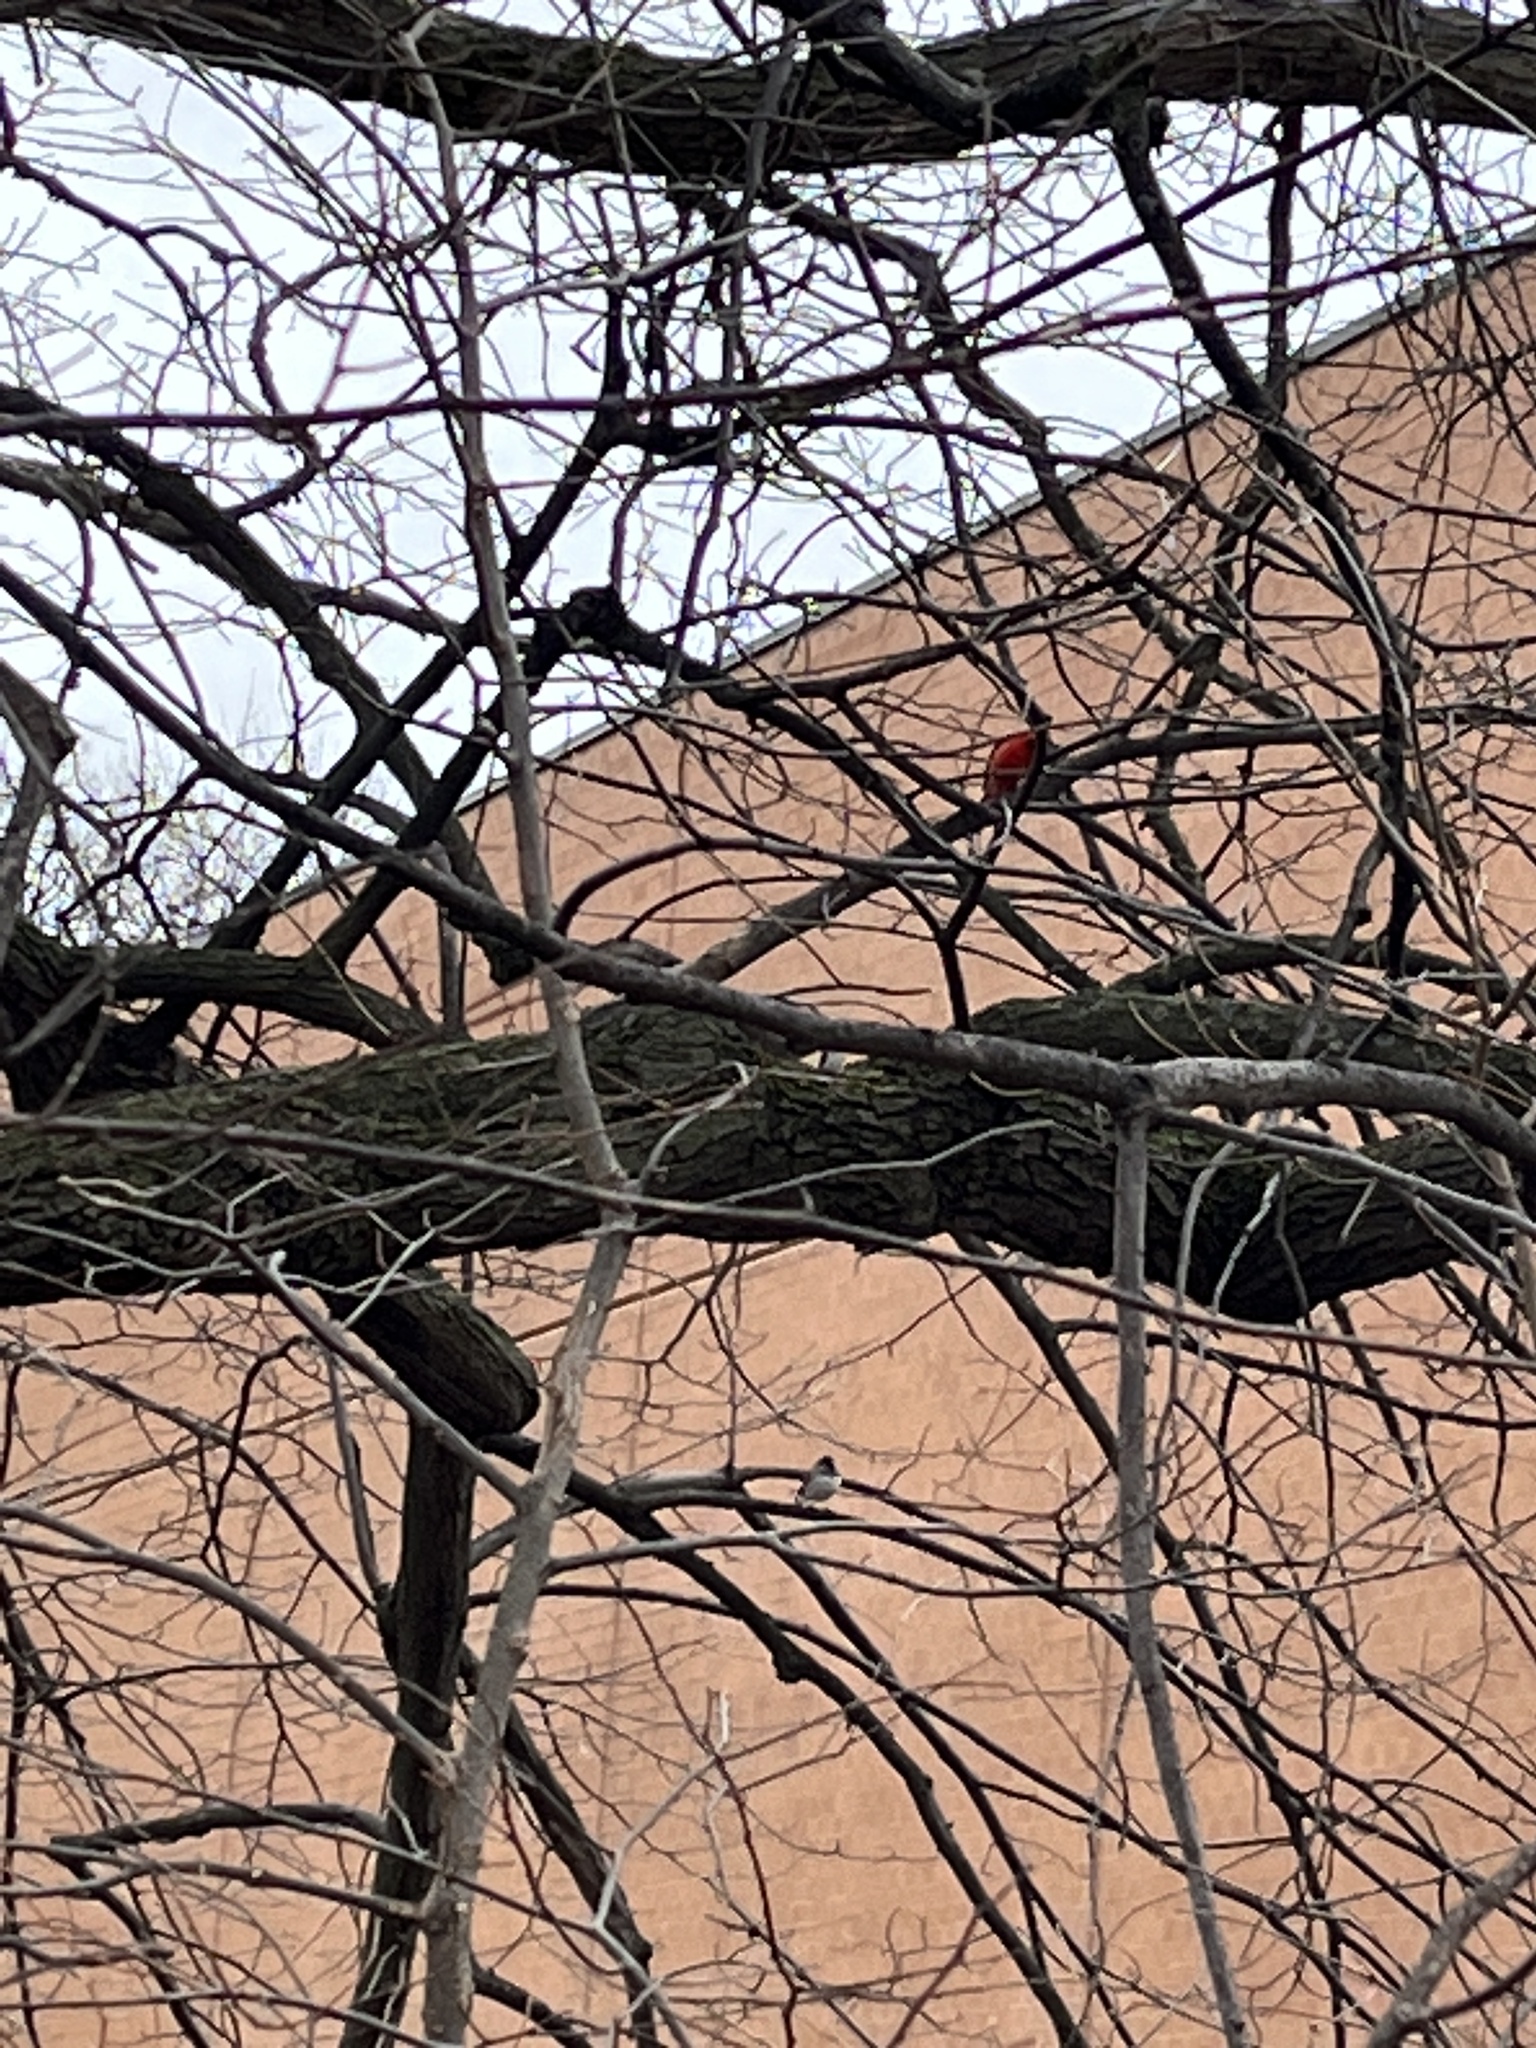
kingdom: Animalia
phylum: Chordata
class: Aves
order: Passeriformes
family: Cardinalidae
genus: Cardinalis
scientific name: Cardinalis cardinalis
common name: Northern cardinal
